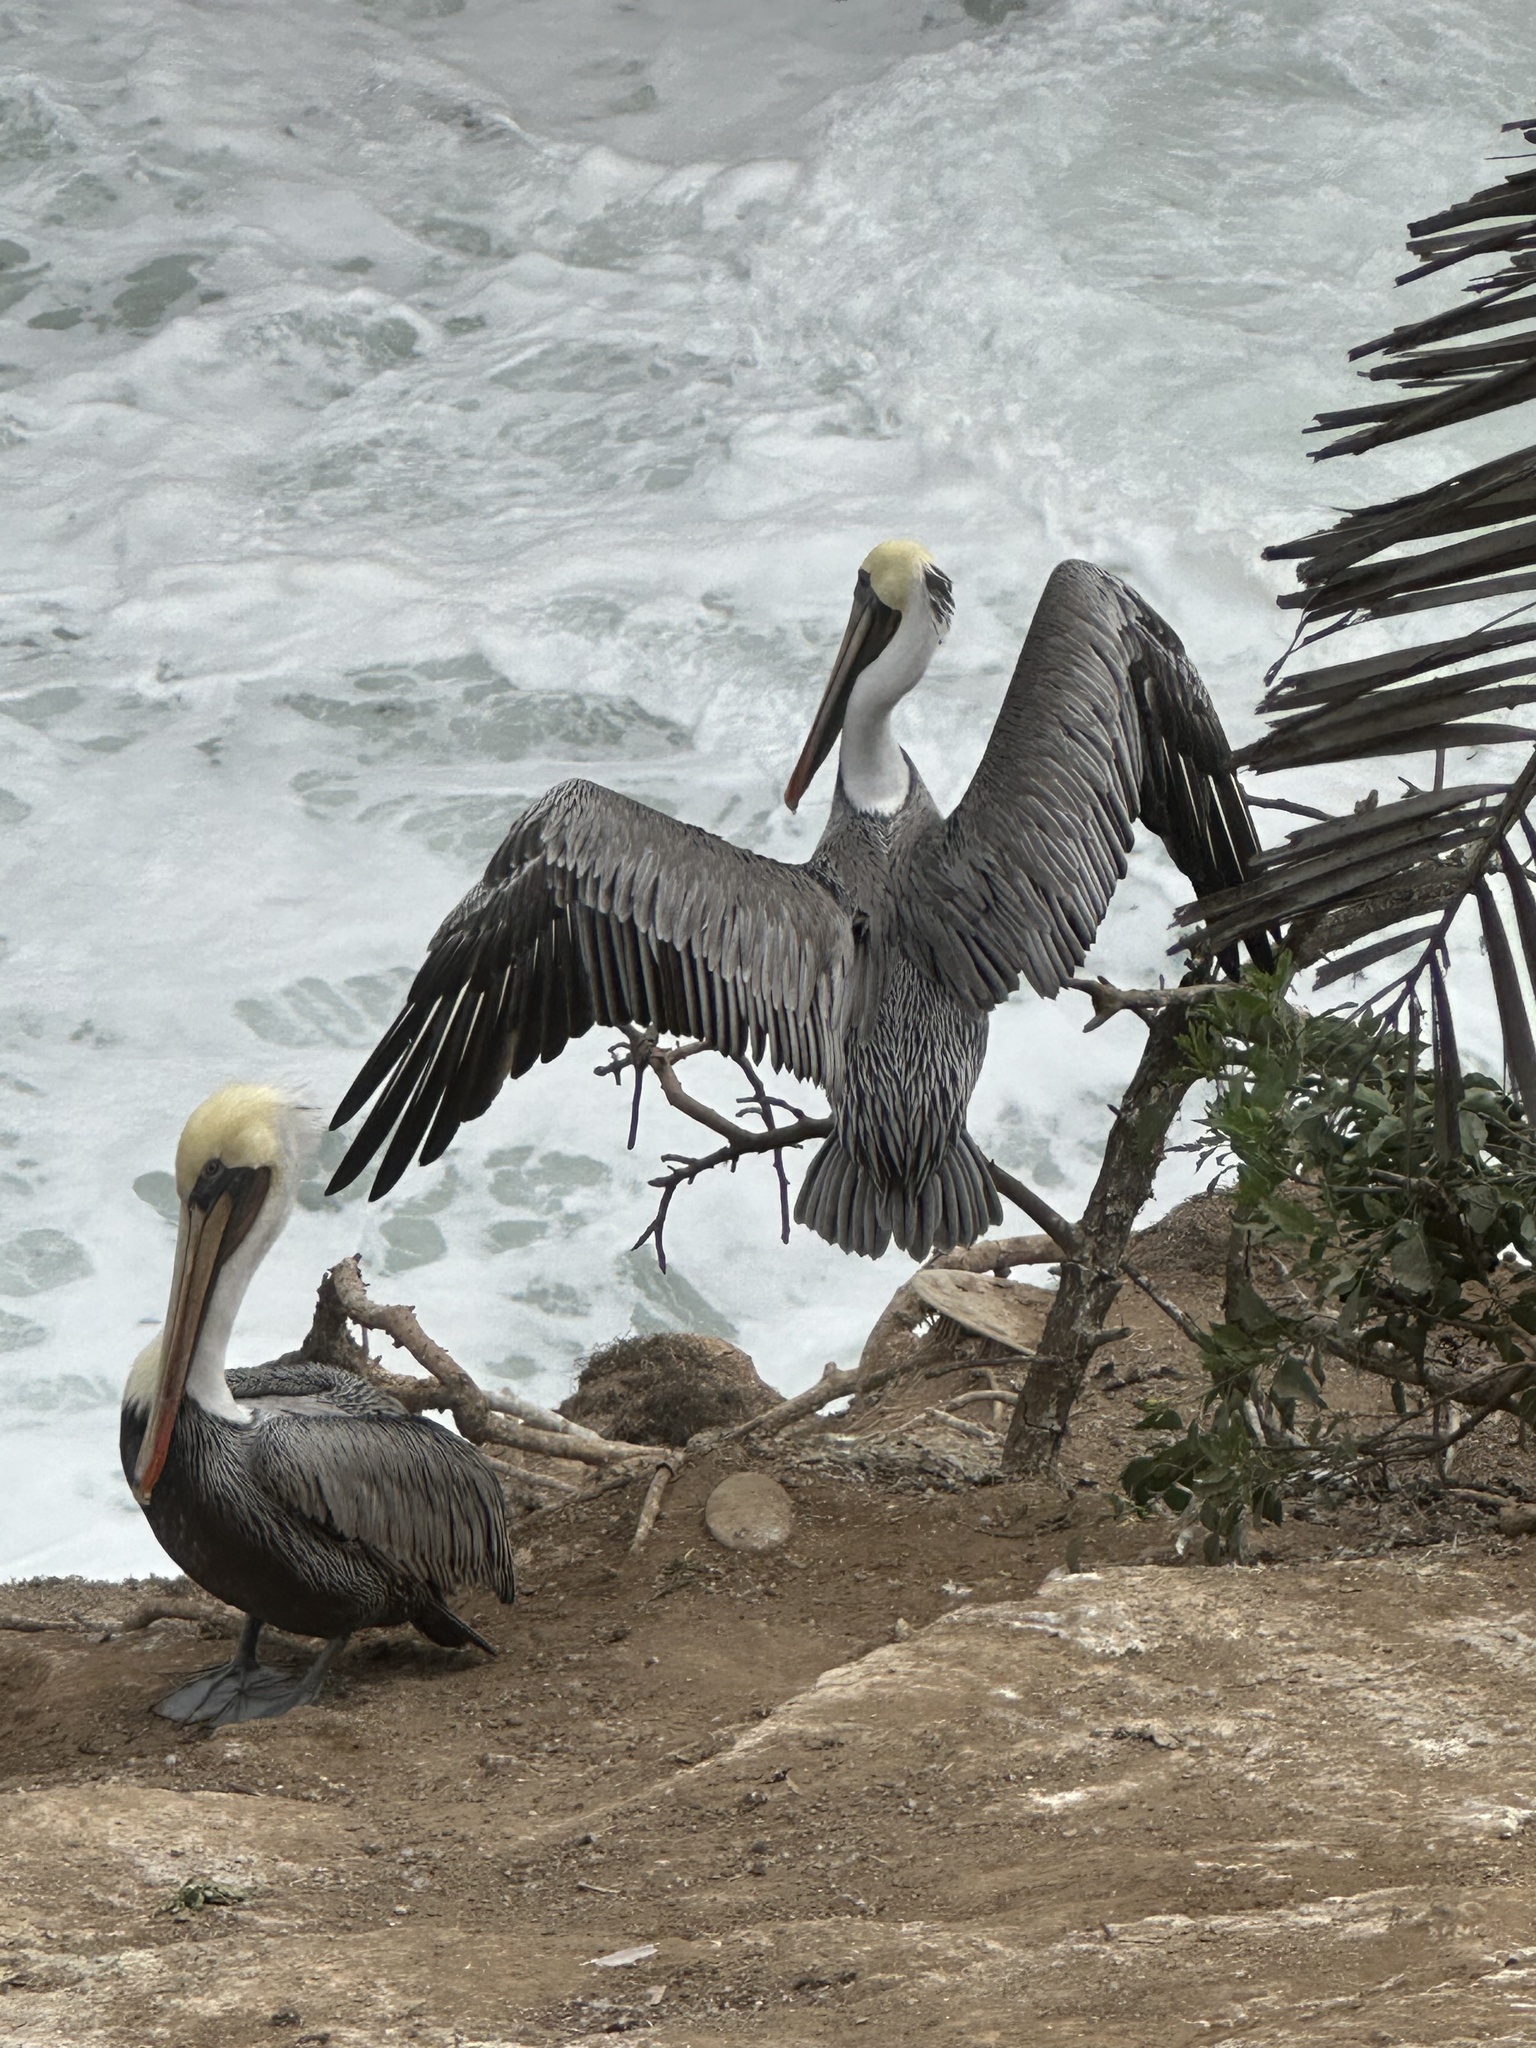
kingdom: Animalia
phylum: Chordata
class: Aves
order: Pelecaniformes
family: Pelecanidae
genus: Pelecanus
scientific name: Pelecanus occidentalis
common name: Brown pelican
